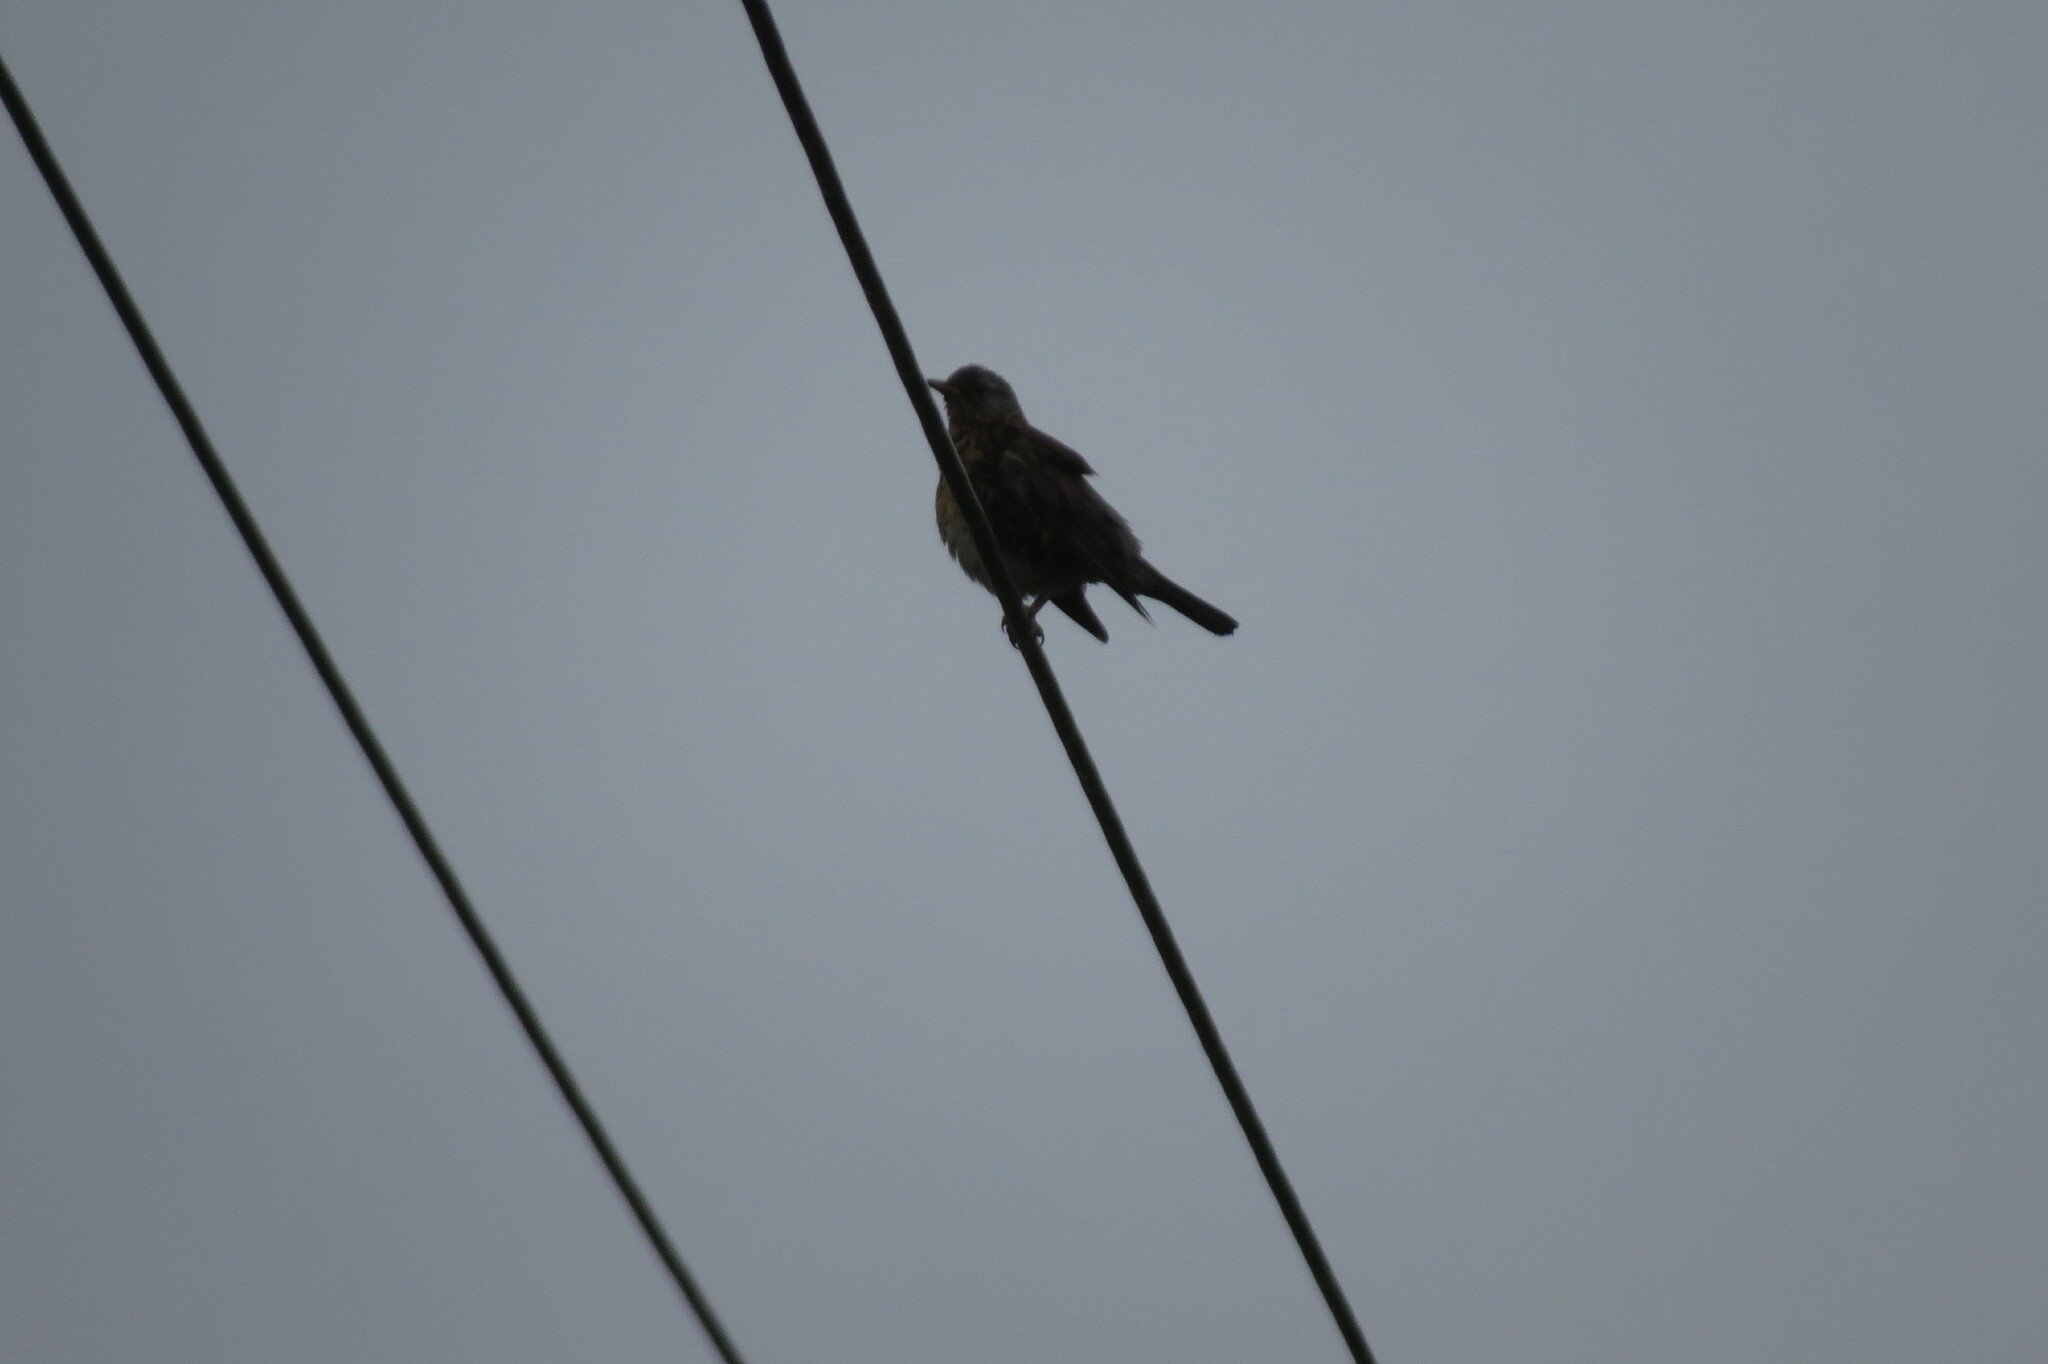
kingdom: Animalia
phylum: Chordata
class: Aves
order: Passeriformes
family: Turdidae
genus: Turdus
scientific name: Turdus pilaris
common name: Fieldfare
